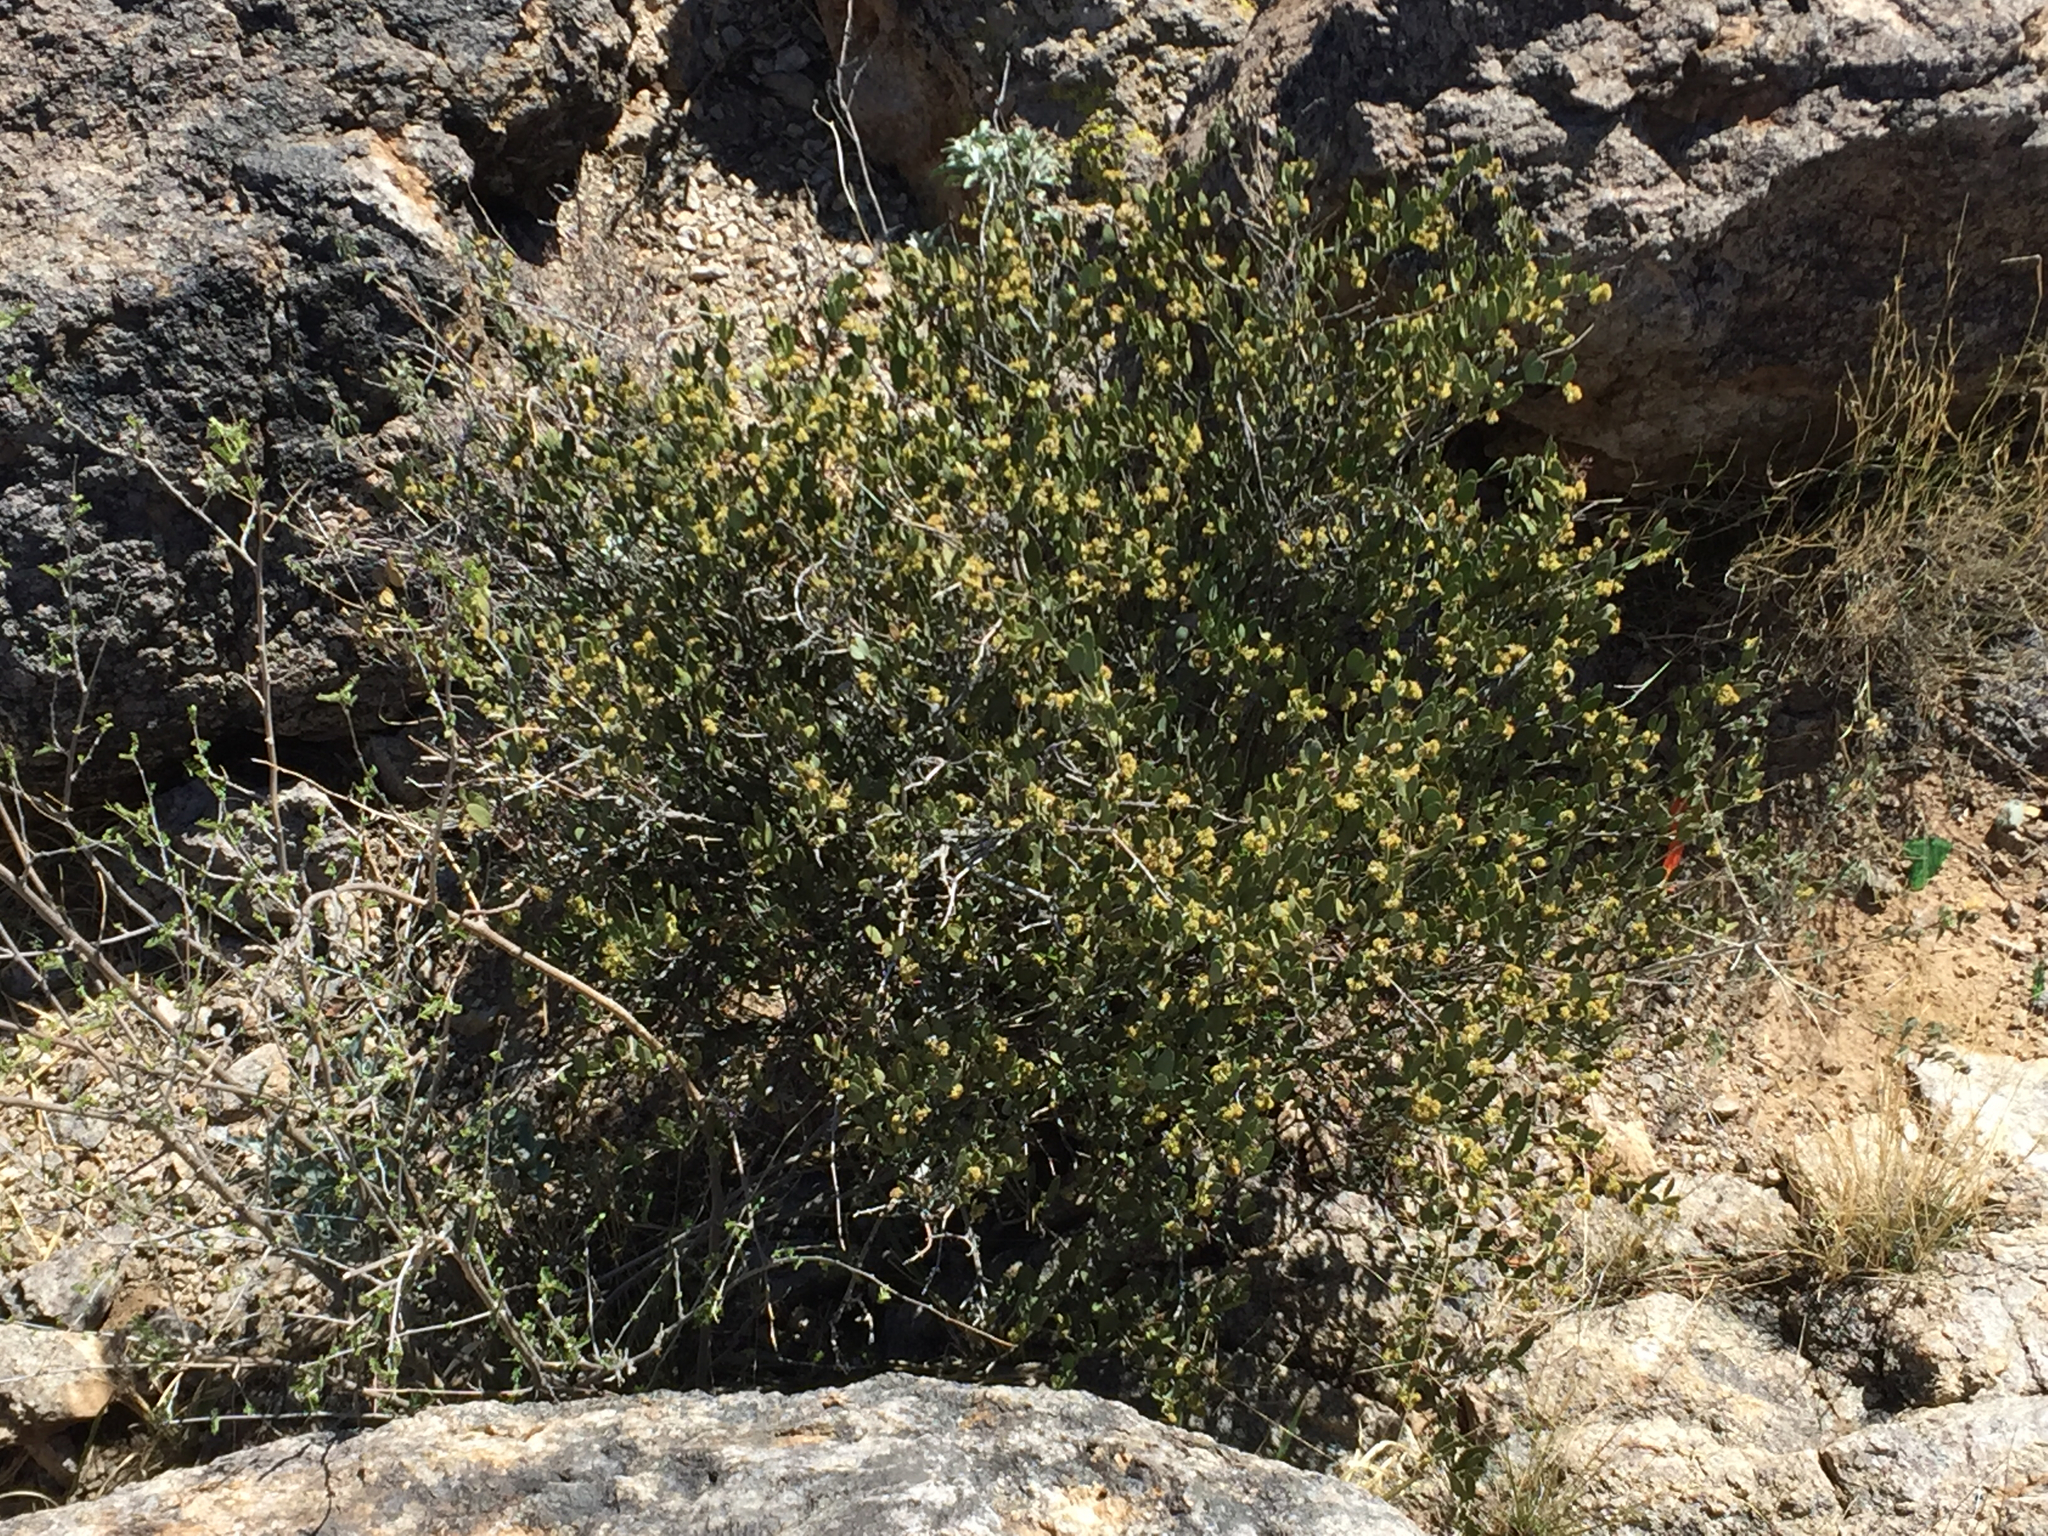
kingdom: Plantae
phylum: Tracheophyta
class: Magnoliopsida
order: Caryophyllales
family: Simmondsiaceae
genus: Simmondsia
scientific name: Simmondsia chinensis
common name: Jojoba
